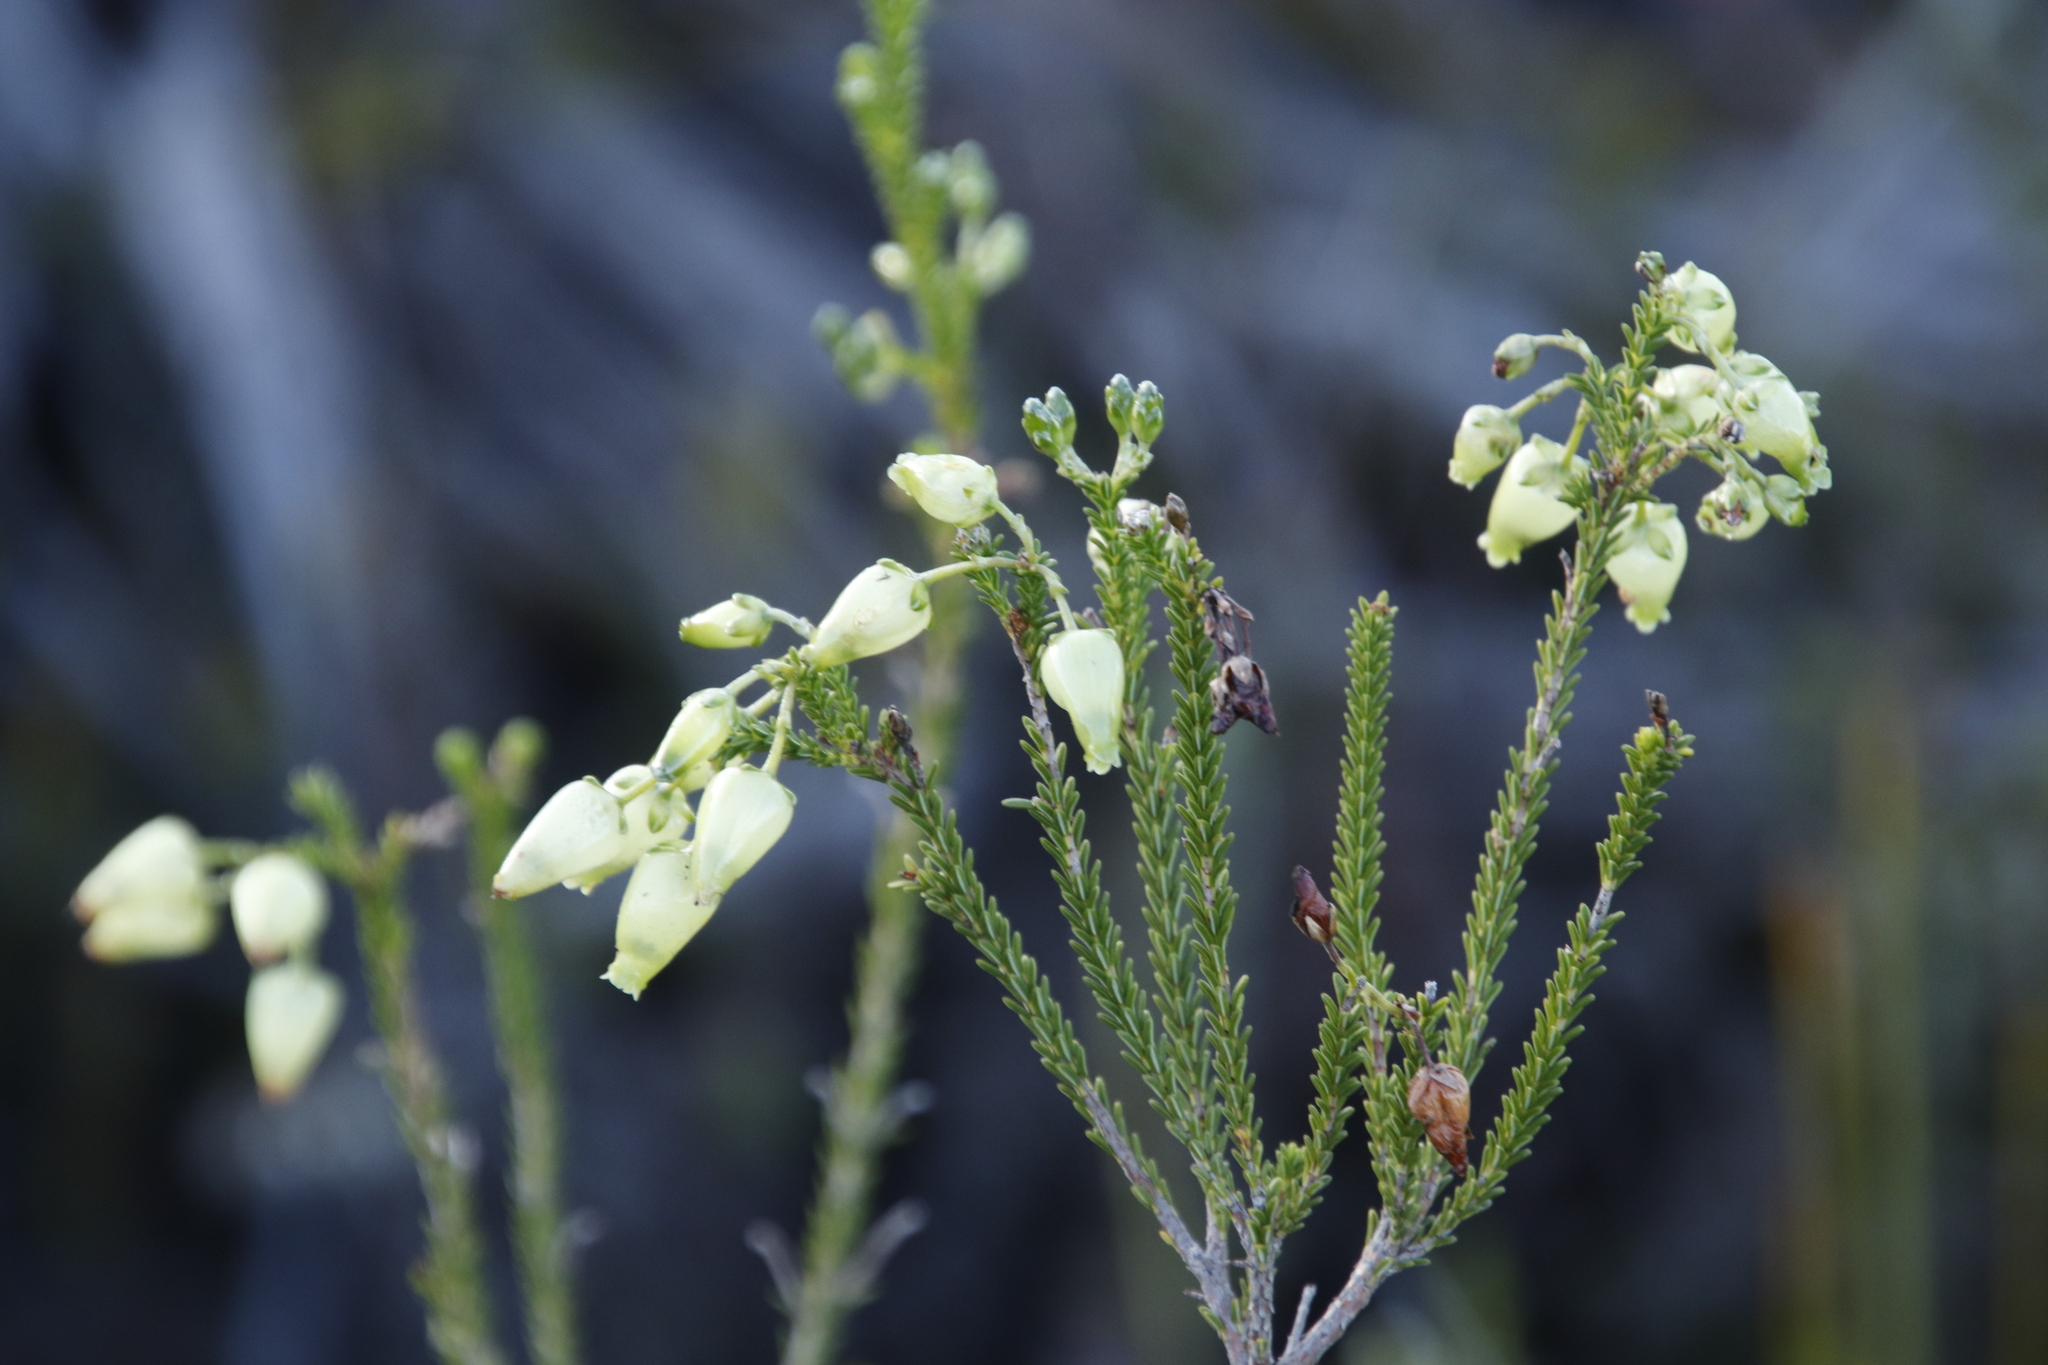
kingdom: Plantae
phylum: Tracheophyta
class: Magnoliopsida
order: Ericales
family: Ericaceae
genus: Erica
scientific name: Erica urna-viridis
